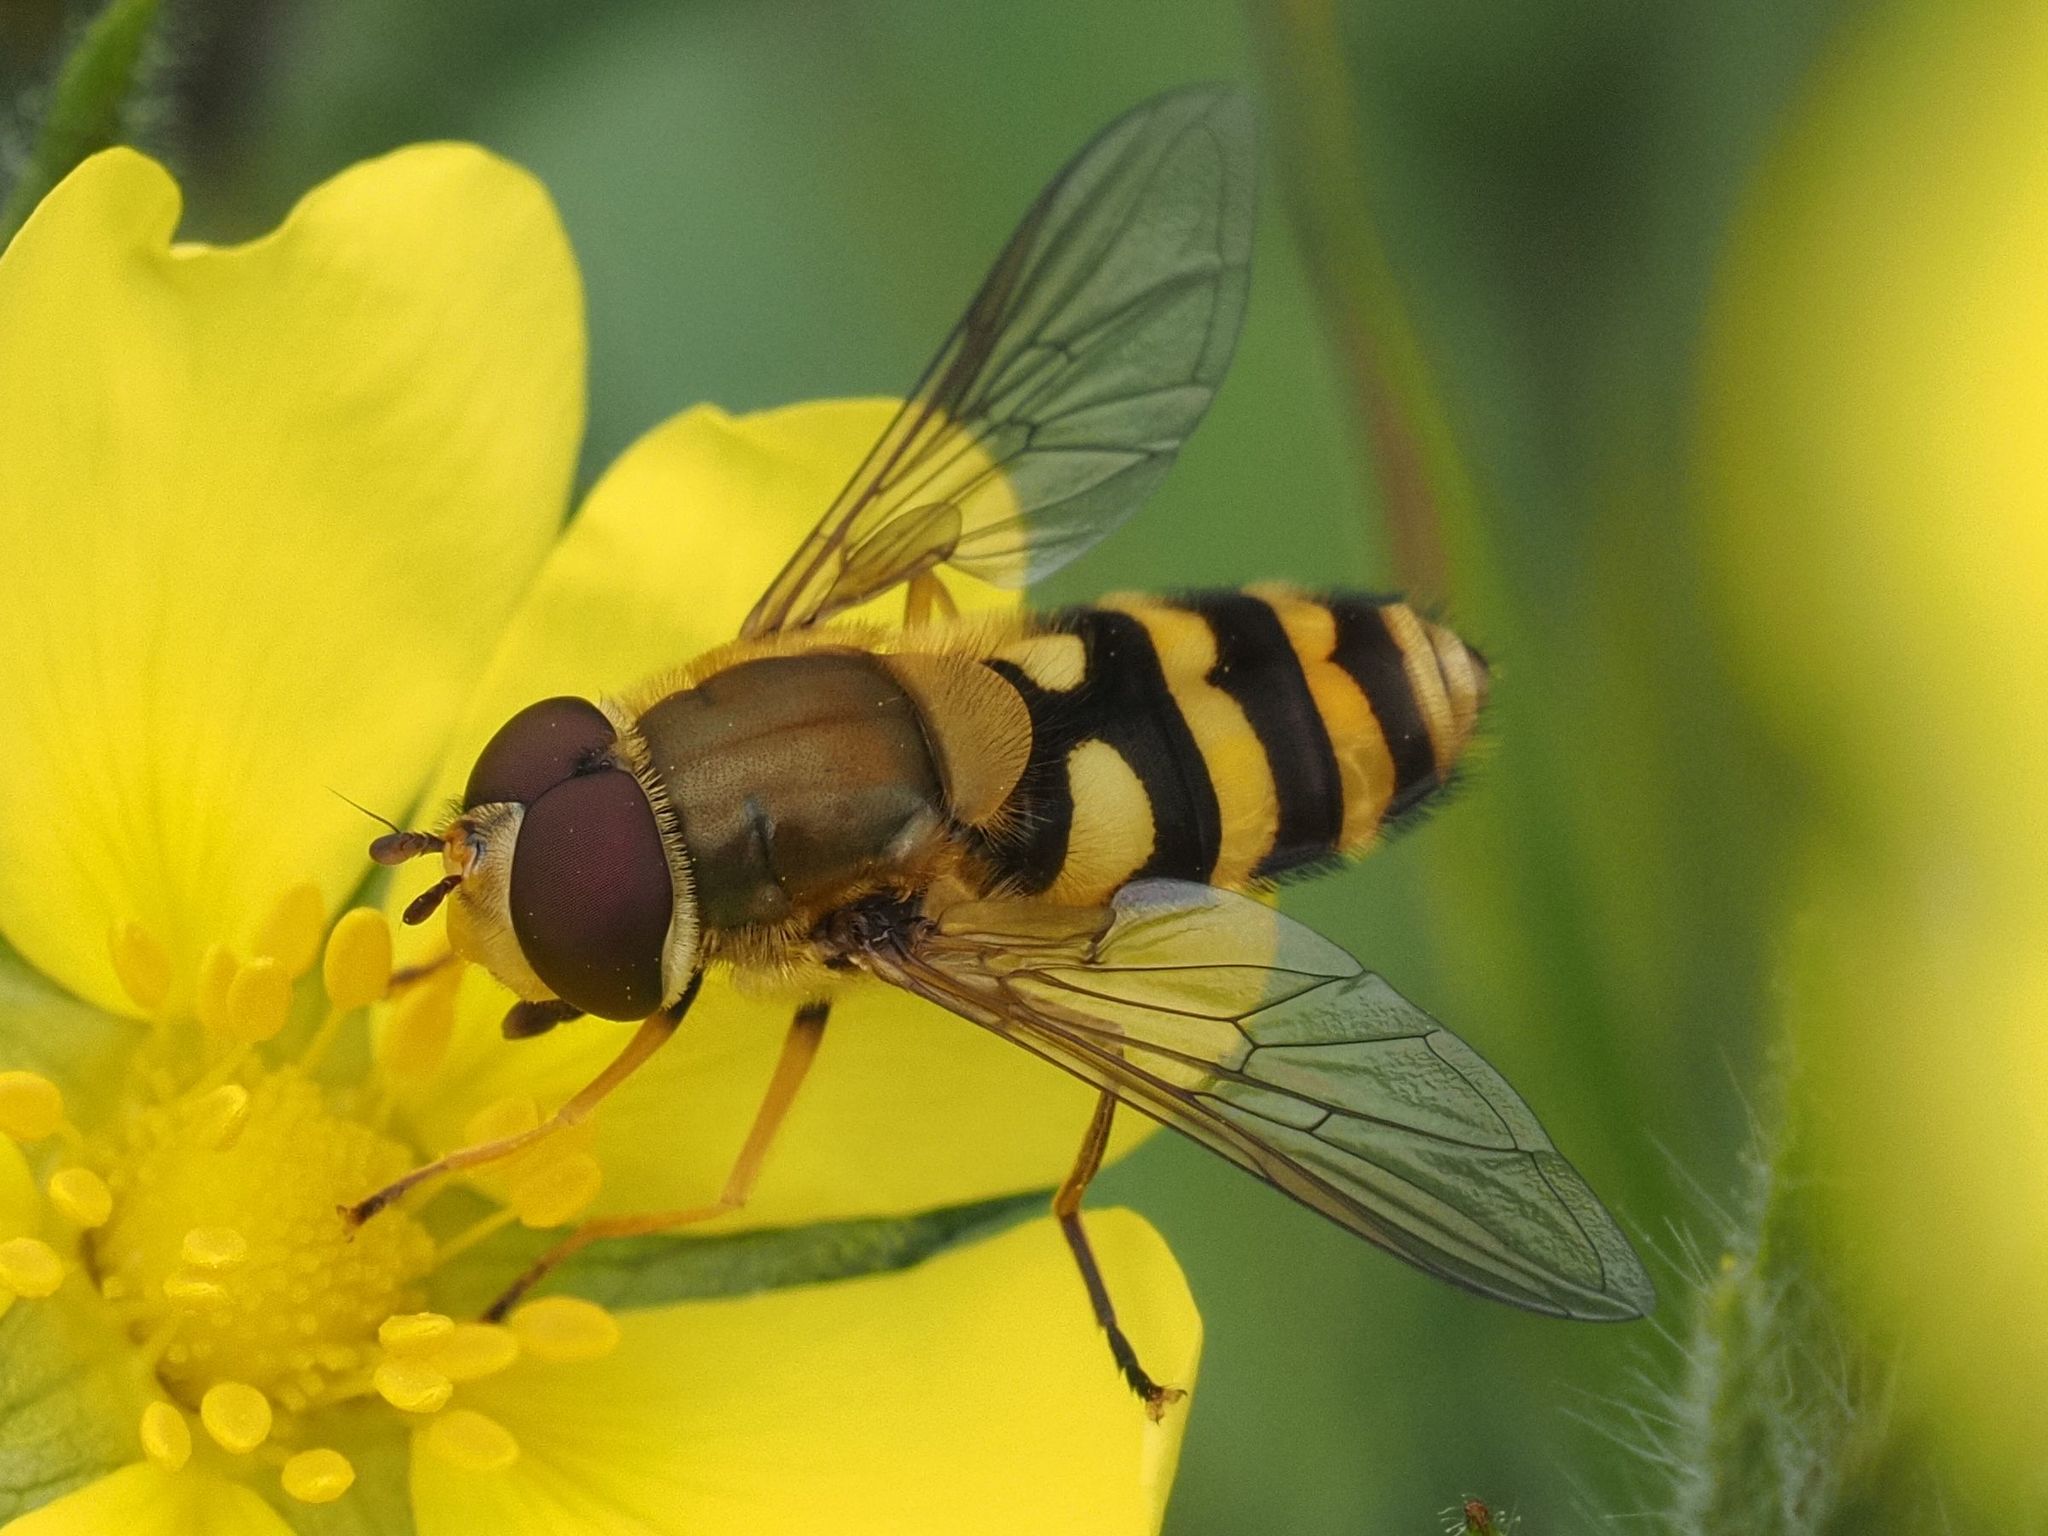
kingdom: Animalia
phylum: Arthropoda
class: Insecta
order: Diptera
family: Syrphidae
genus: Syrphus
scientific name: Syrphus
